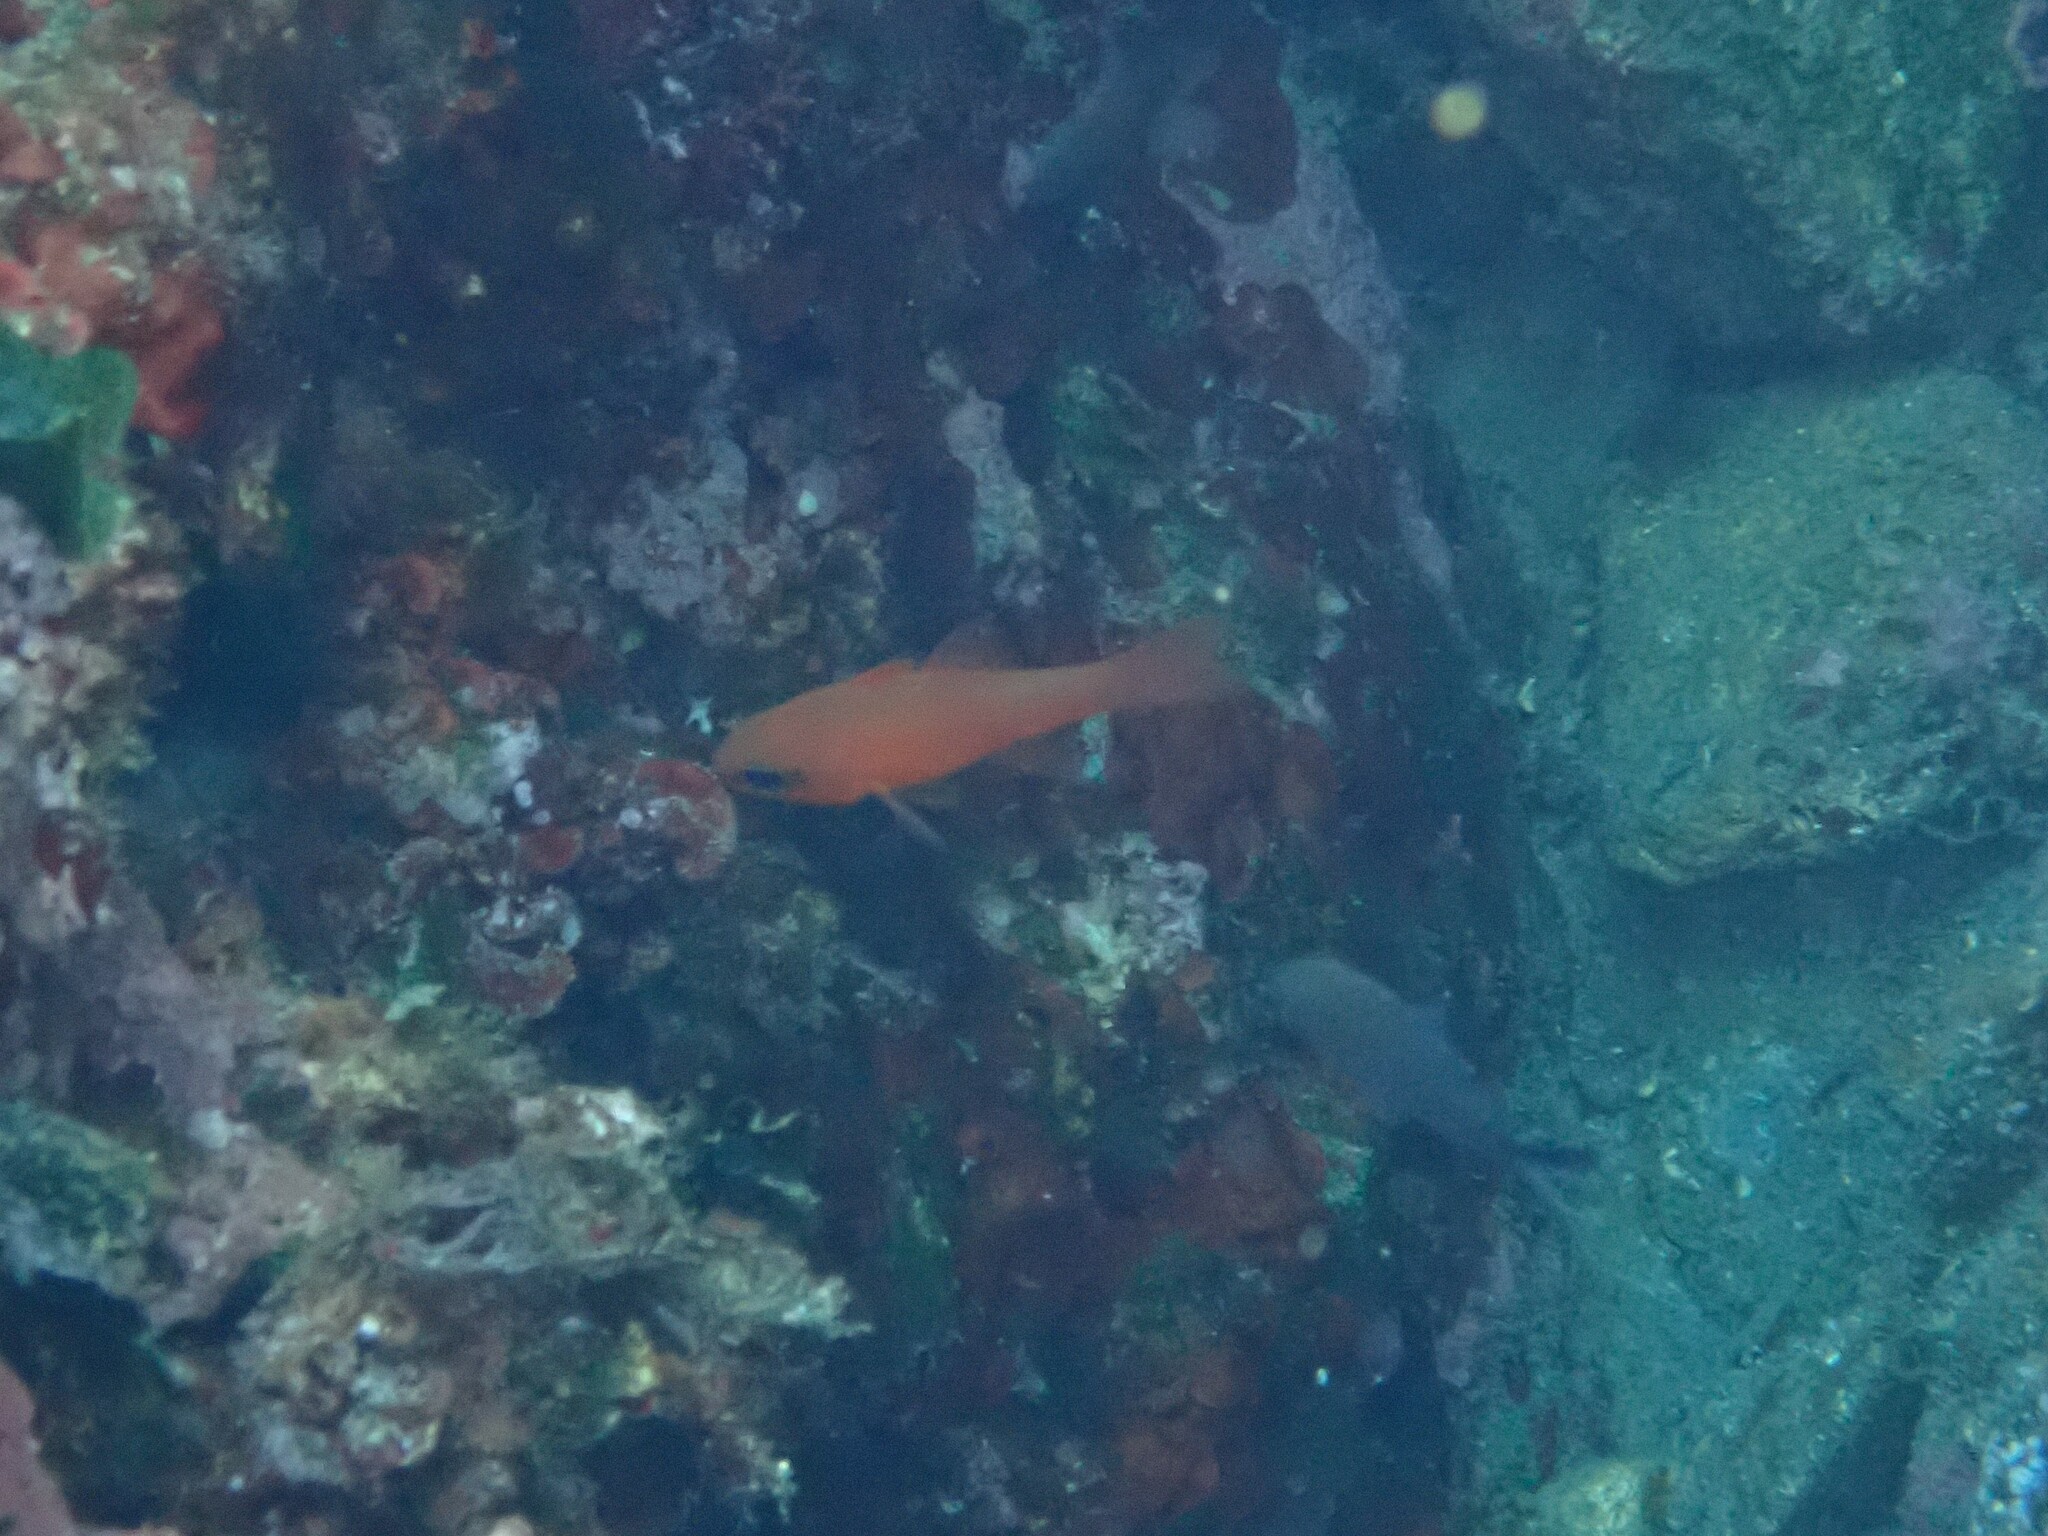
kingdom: Animalia
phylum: Chordata
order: Perciformes
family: Apogonidae
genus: Apogon
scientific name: Apogon imberbis
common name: Cardinal fish
